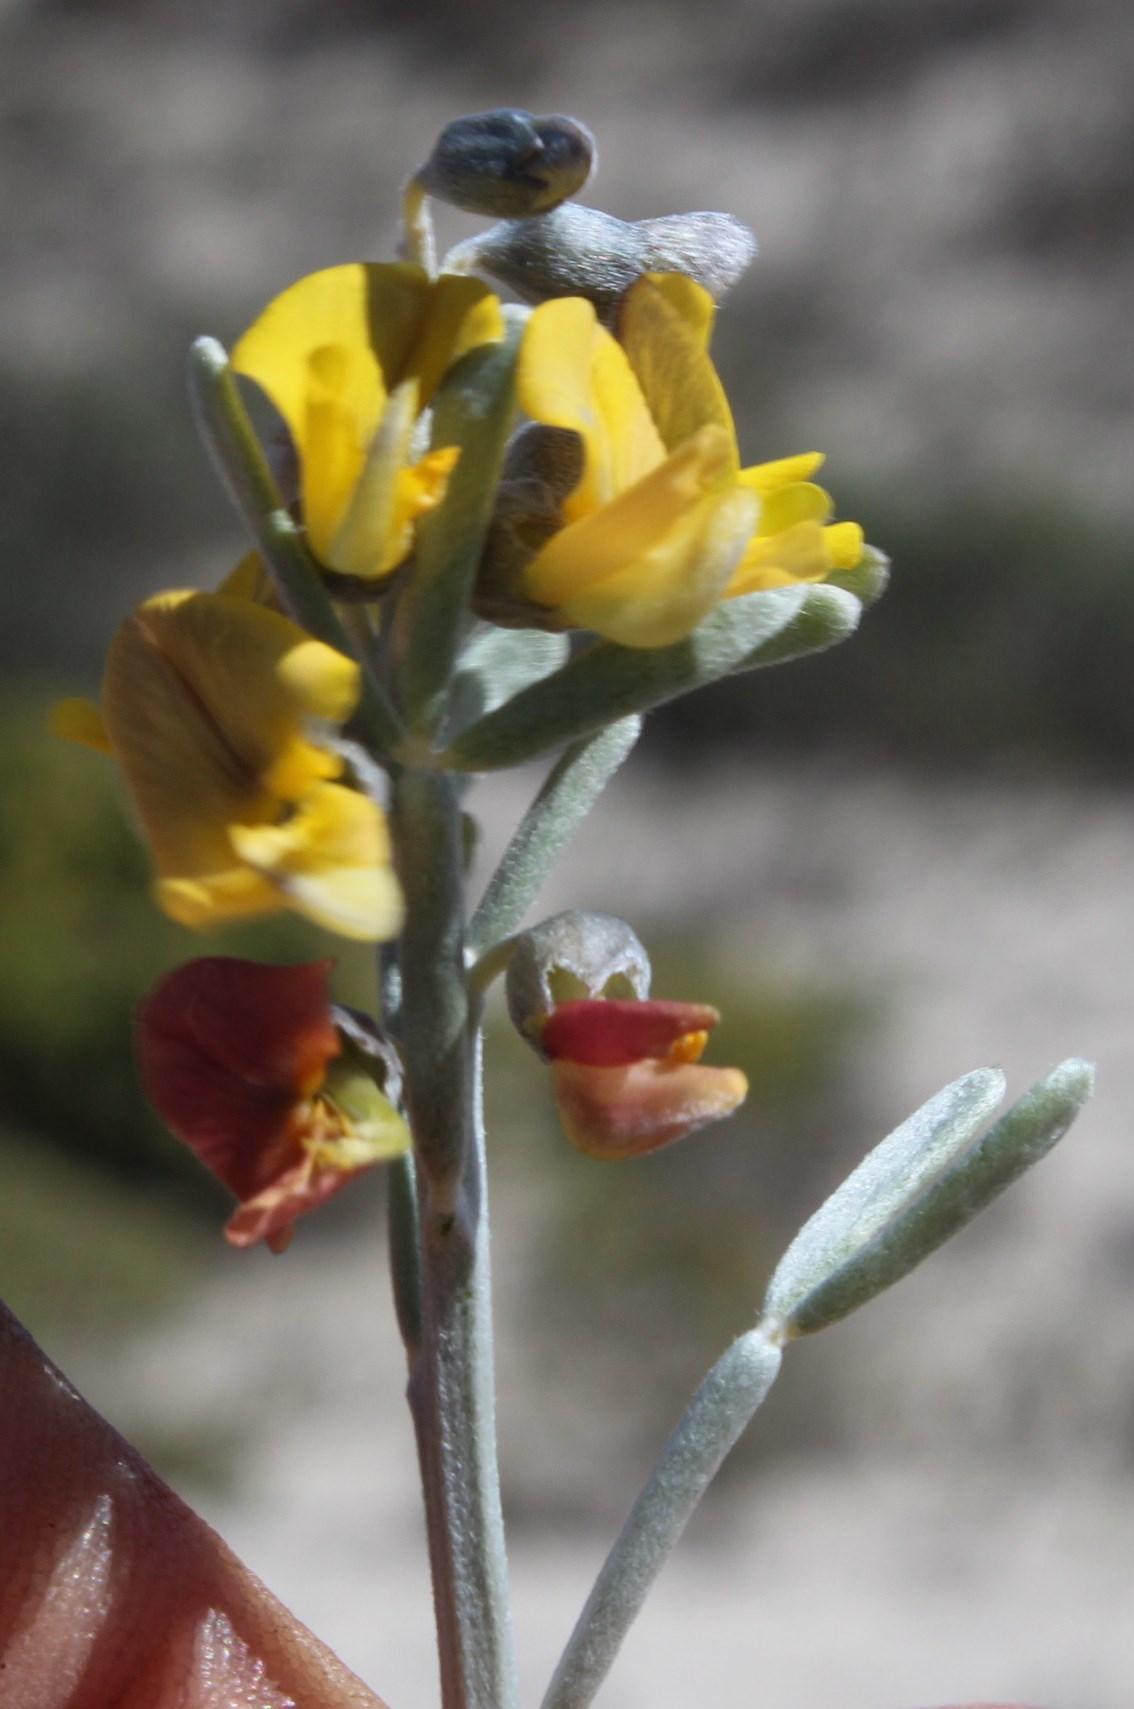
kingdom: Plantae
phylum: Tracheophyta
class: Magnoliopsida
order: Fabales
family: Fabaceae
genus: Calobota
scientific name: Calobota angustifolia
